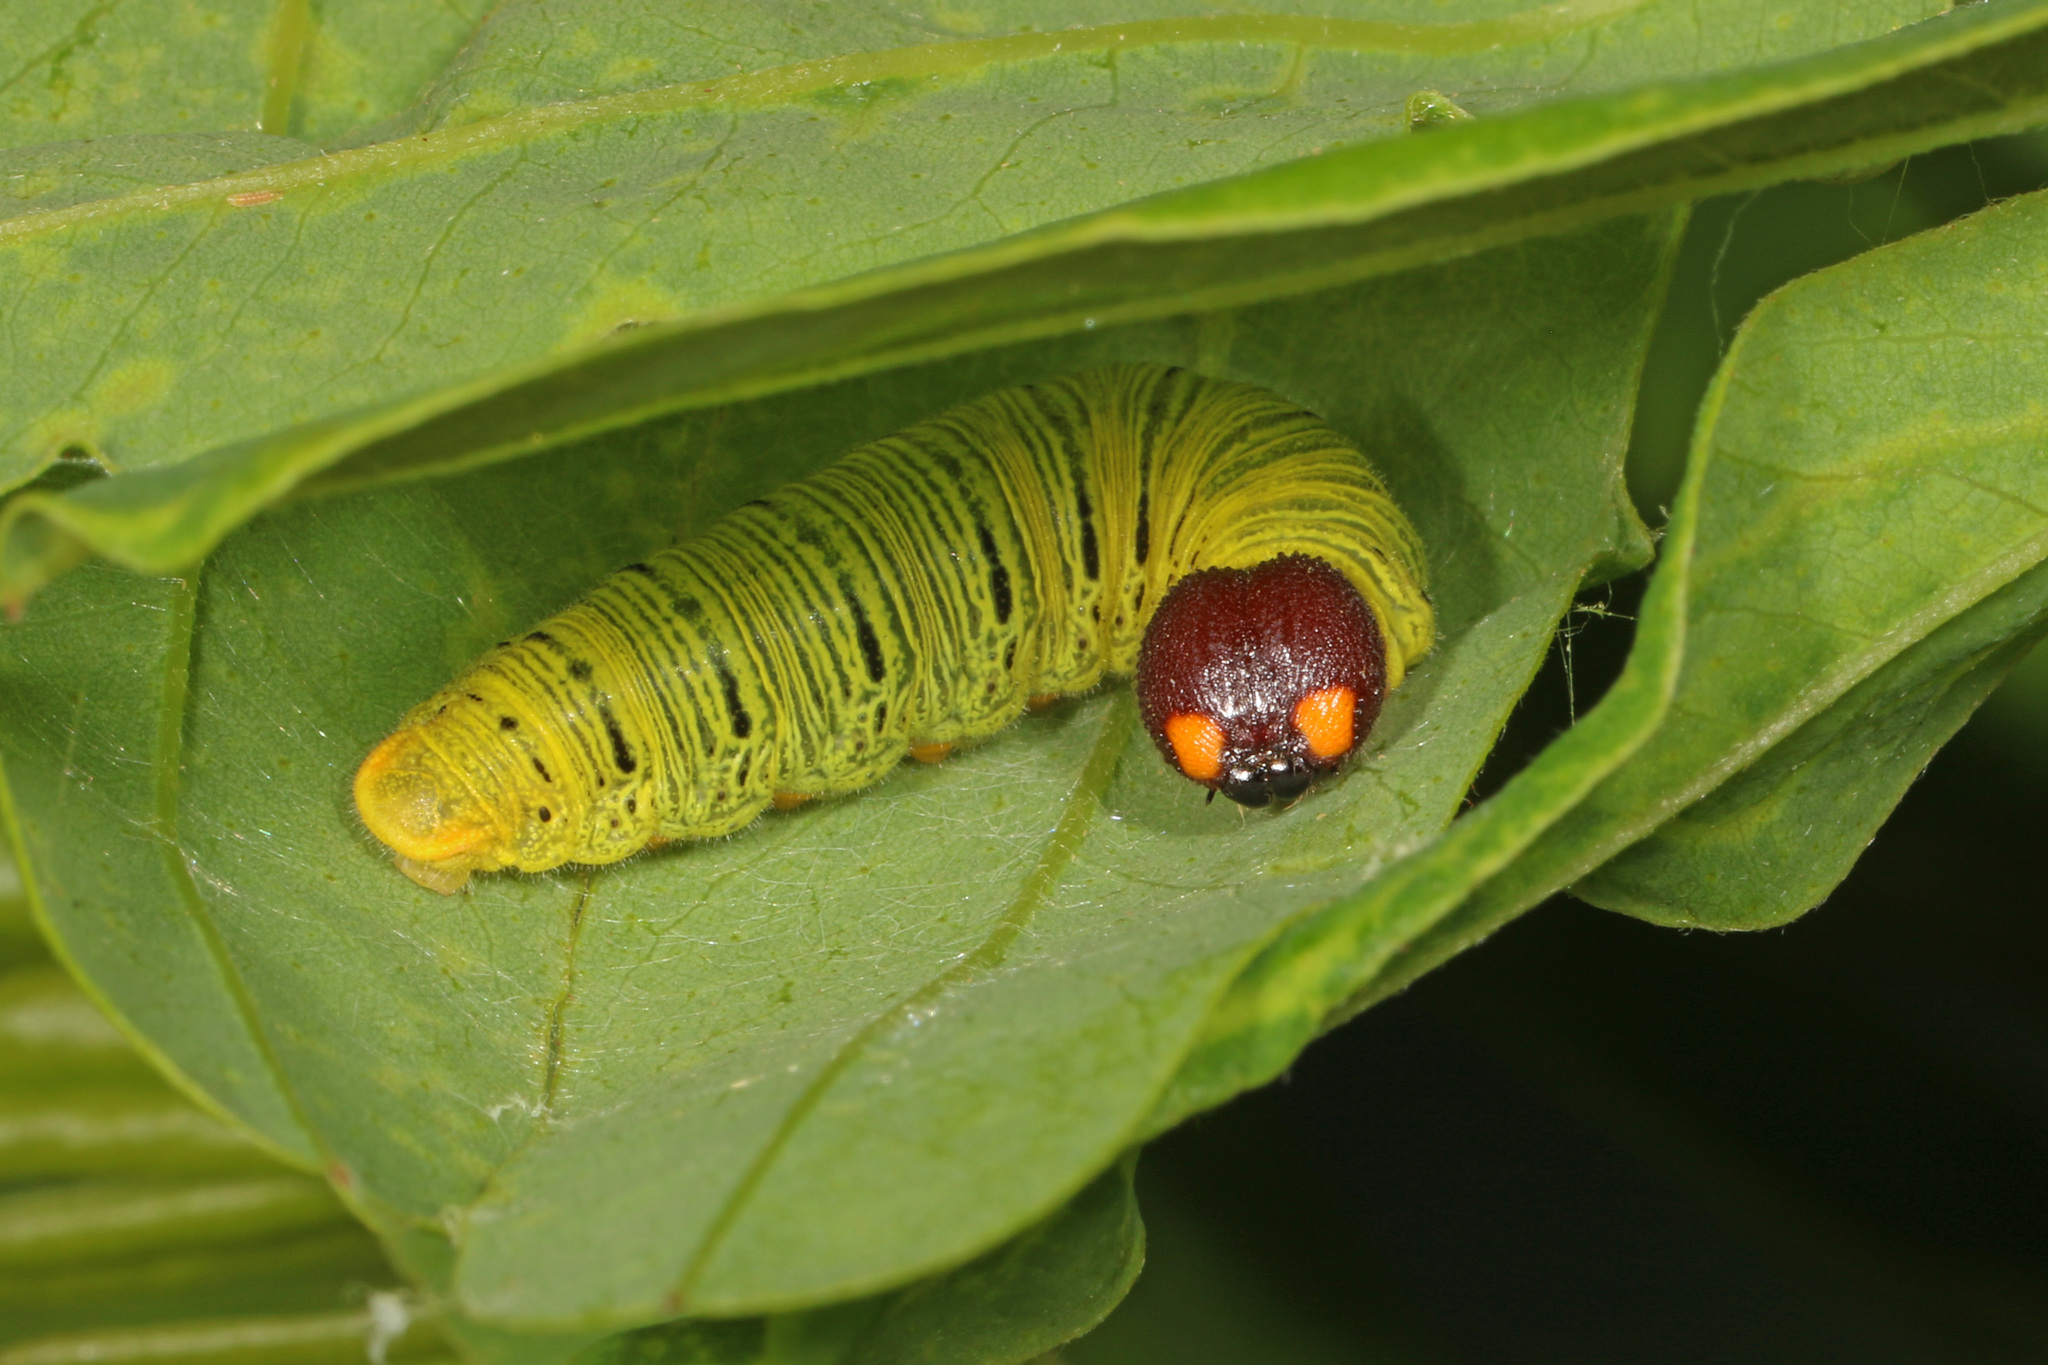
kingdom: Animalia
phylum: Arthropoda
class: Insecta
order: Lepidoptera
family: Hesperiidae
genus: Epargyreus
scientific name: Epargyreus clarus
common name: Silver-spotted skipper
